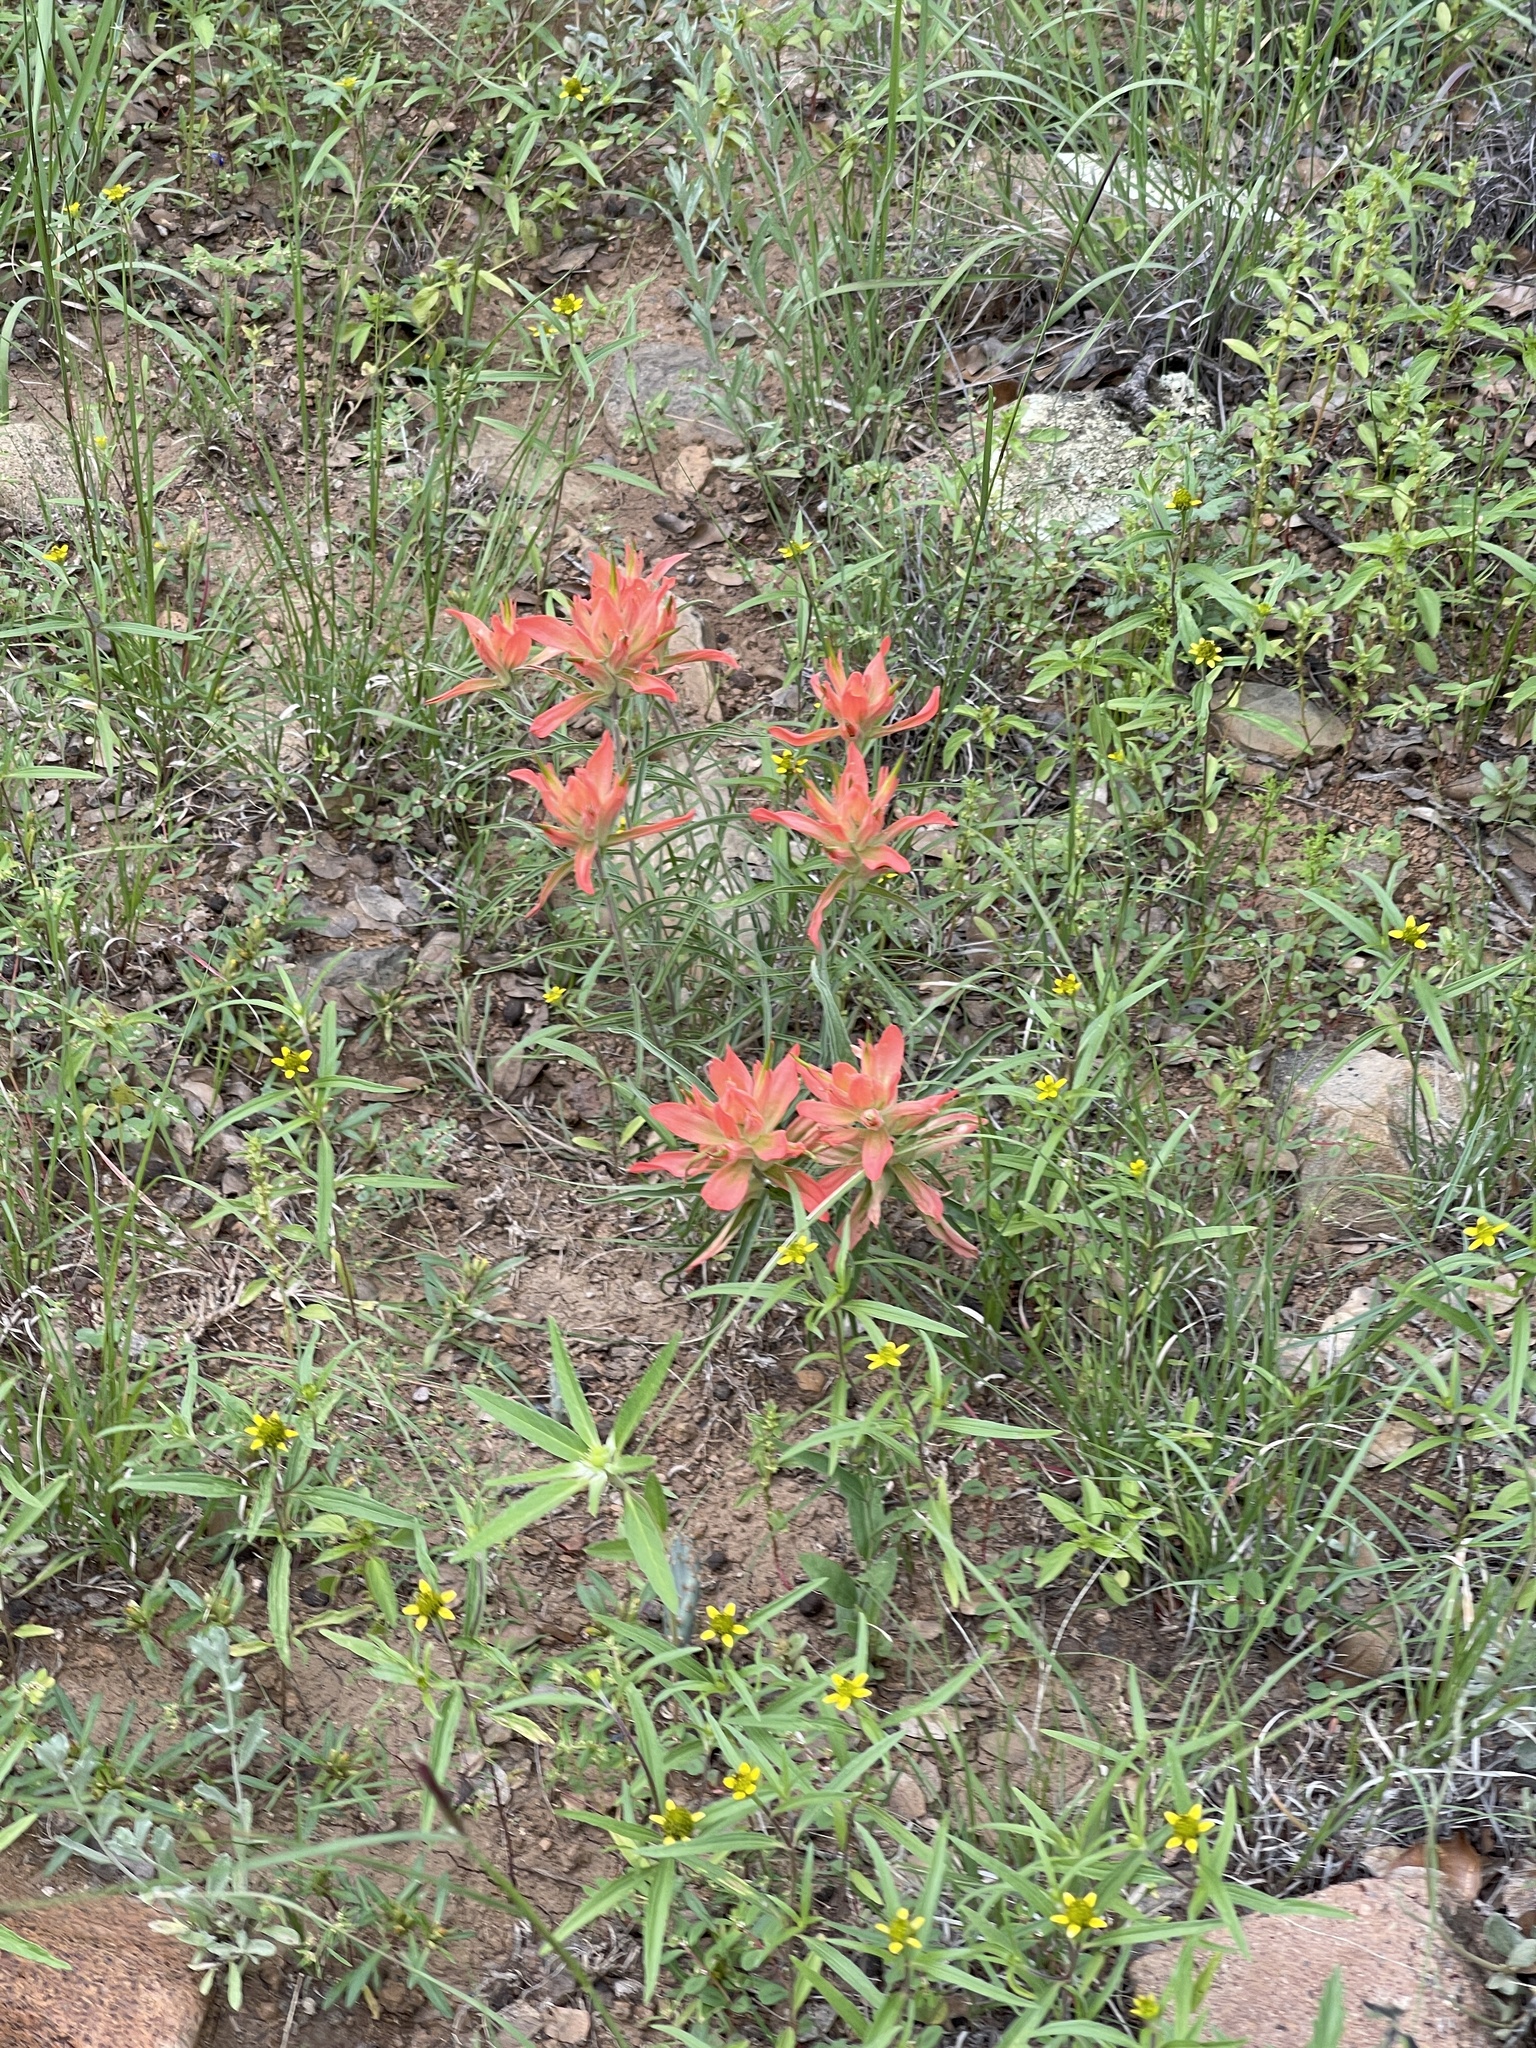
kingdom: Plantae
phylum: Tracheophyta
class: Magnoliopsida
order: Lamiales
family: Orobanchaceae
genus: Castilleja
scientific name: Castilleja integra
